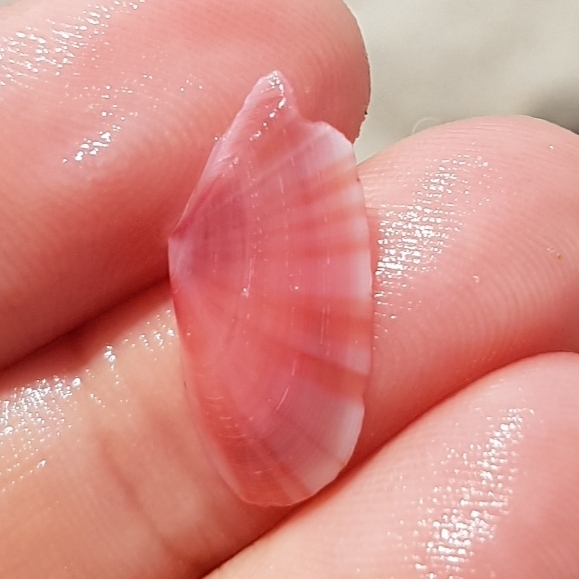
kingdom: Animalia
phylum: Mollusca
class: Bivalvia
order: Cardiida
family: Tellinidae
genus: Moerella
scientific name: Moerella pulchella
